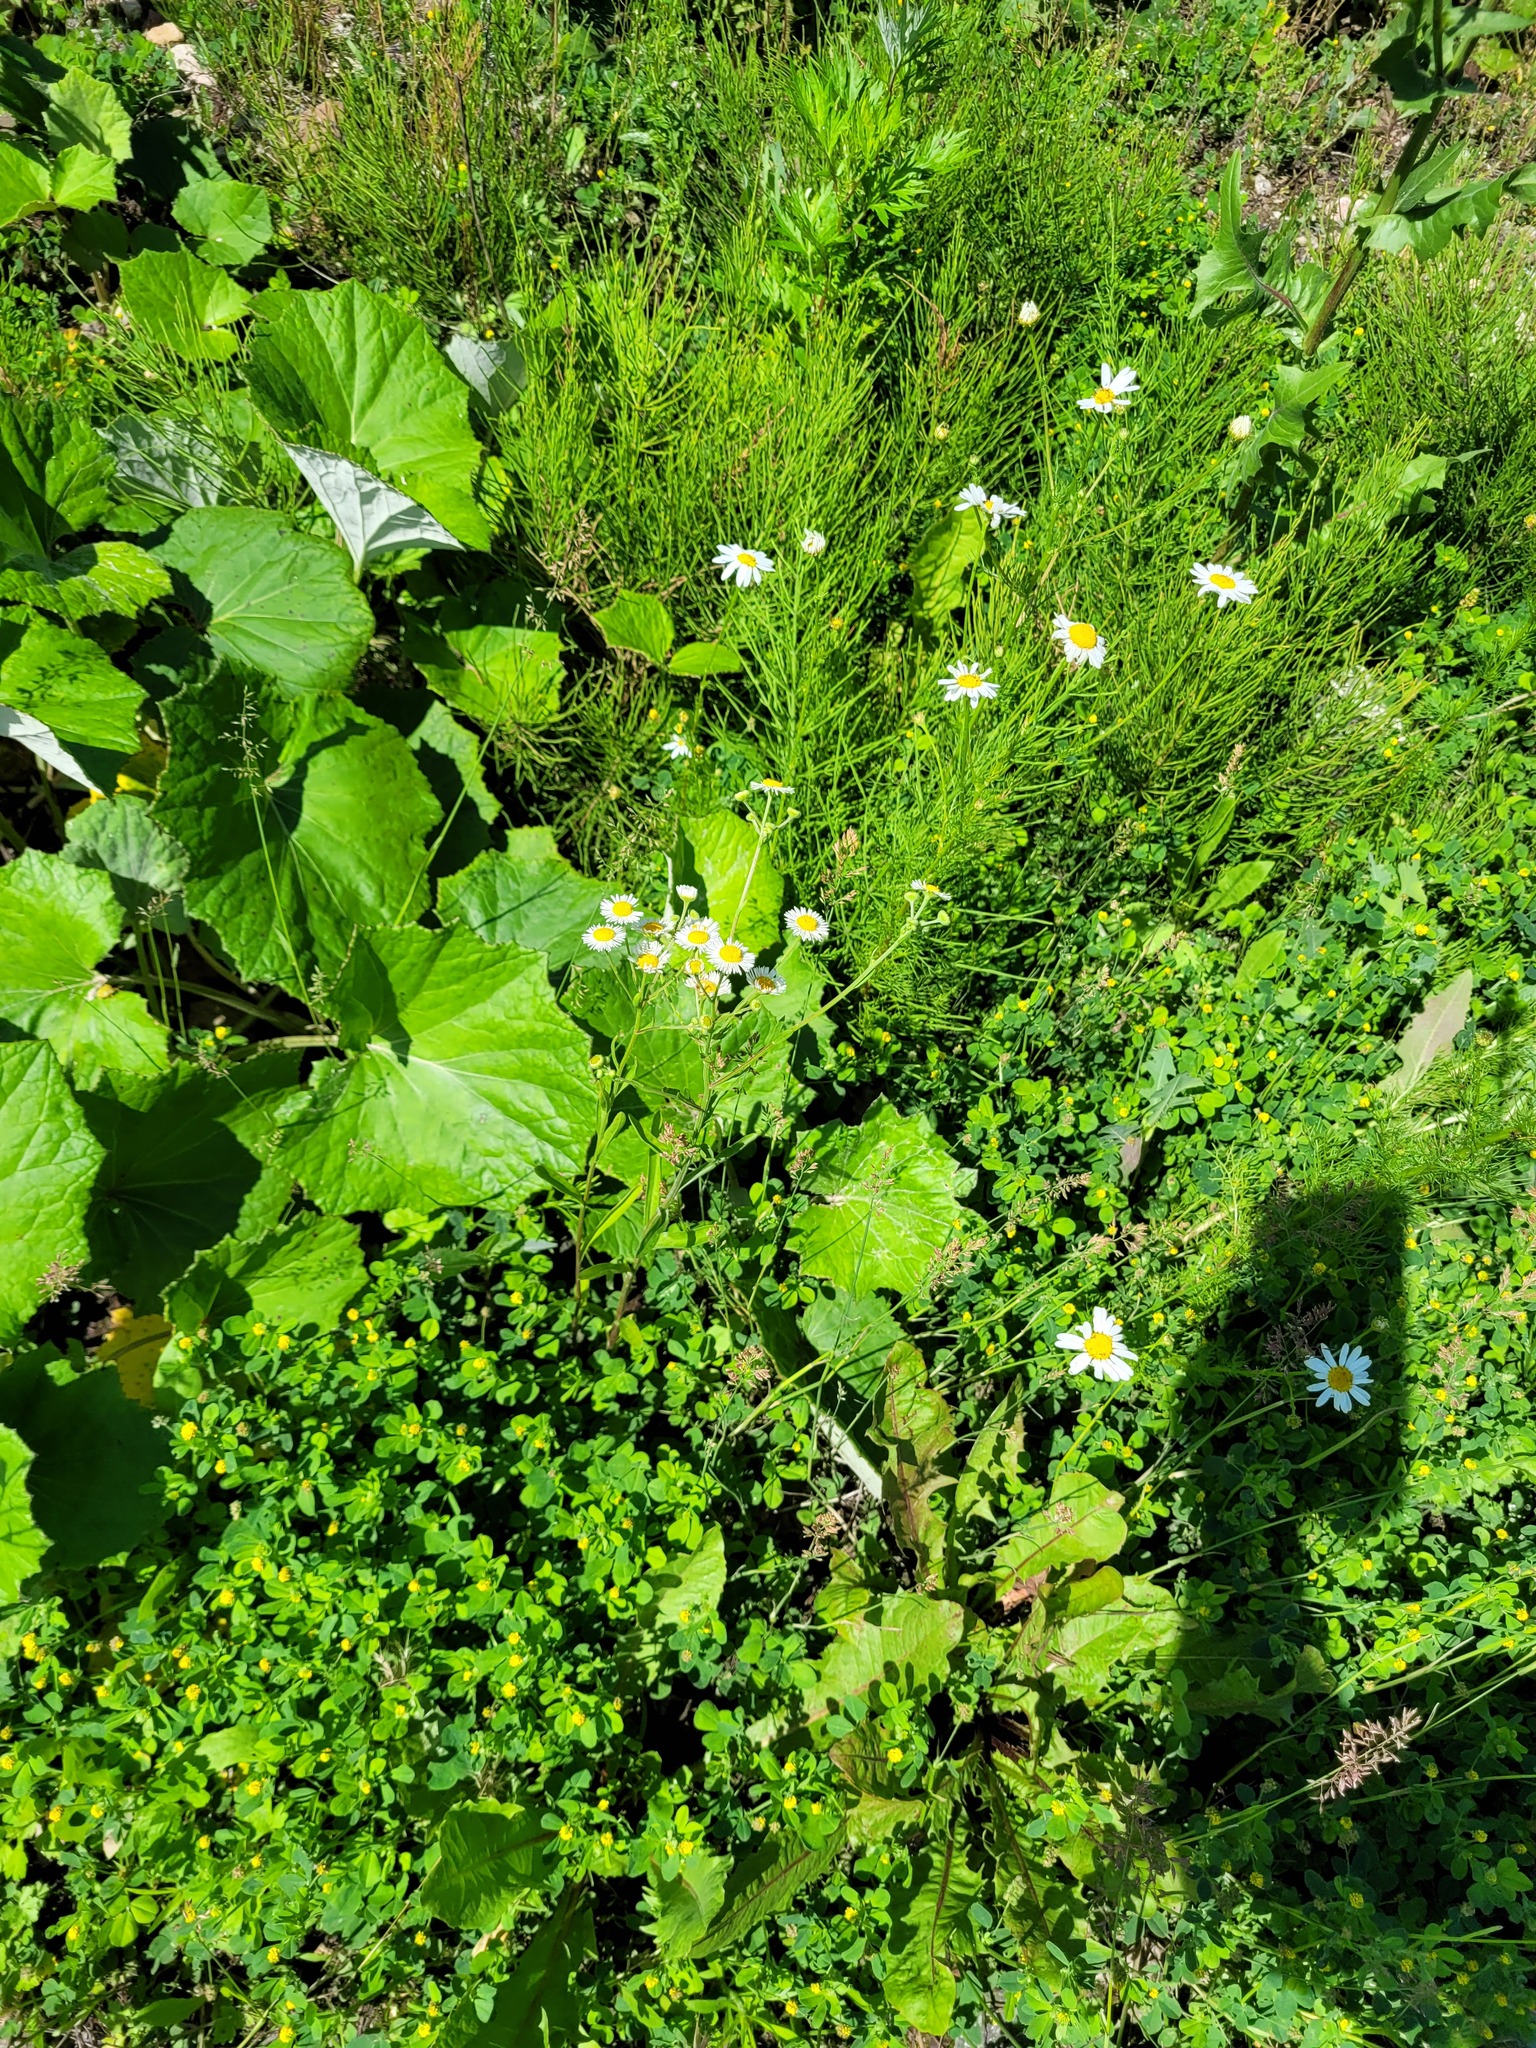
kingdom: Plantae
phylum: Tracheophyta
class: Magnoliopsida
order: Asterales
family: Asteraceae
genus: Erigeron
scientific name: Erigeron annuus
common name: Tall fleabane
